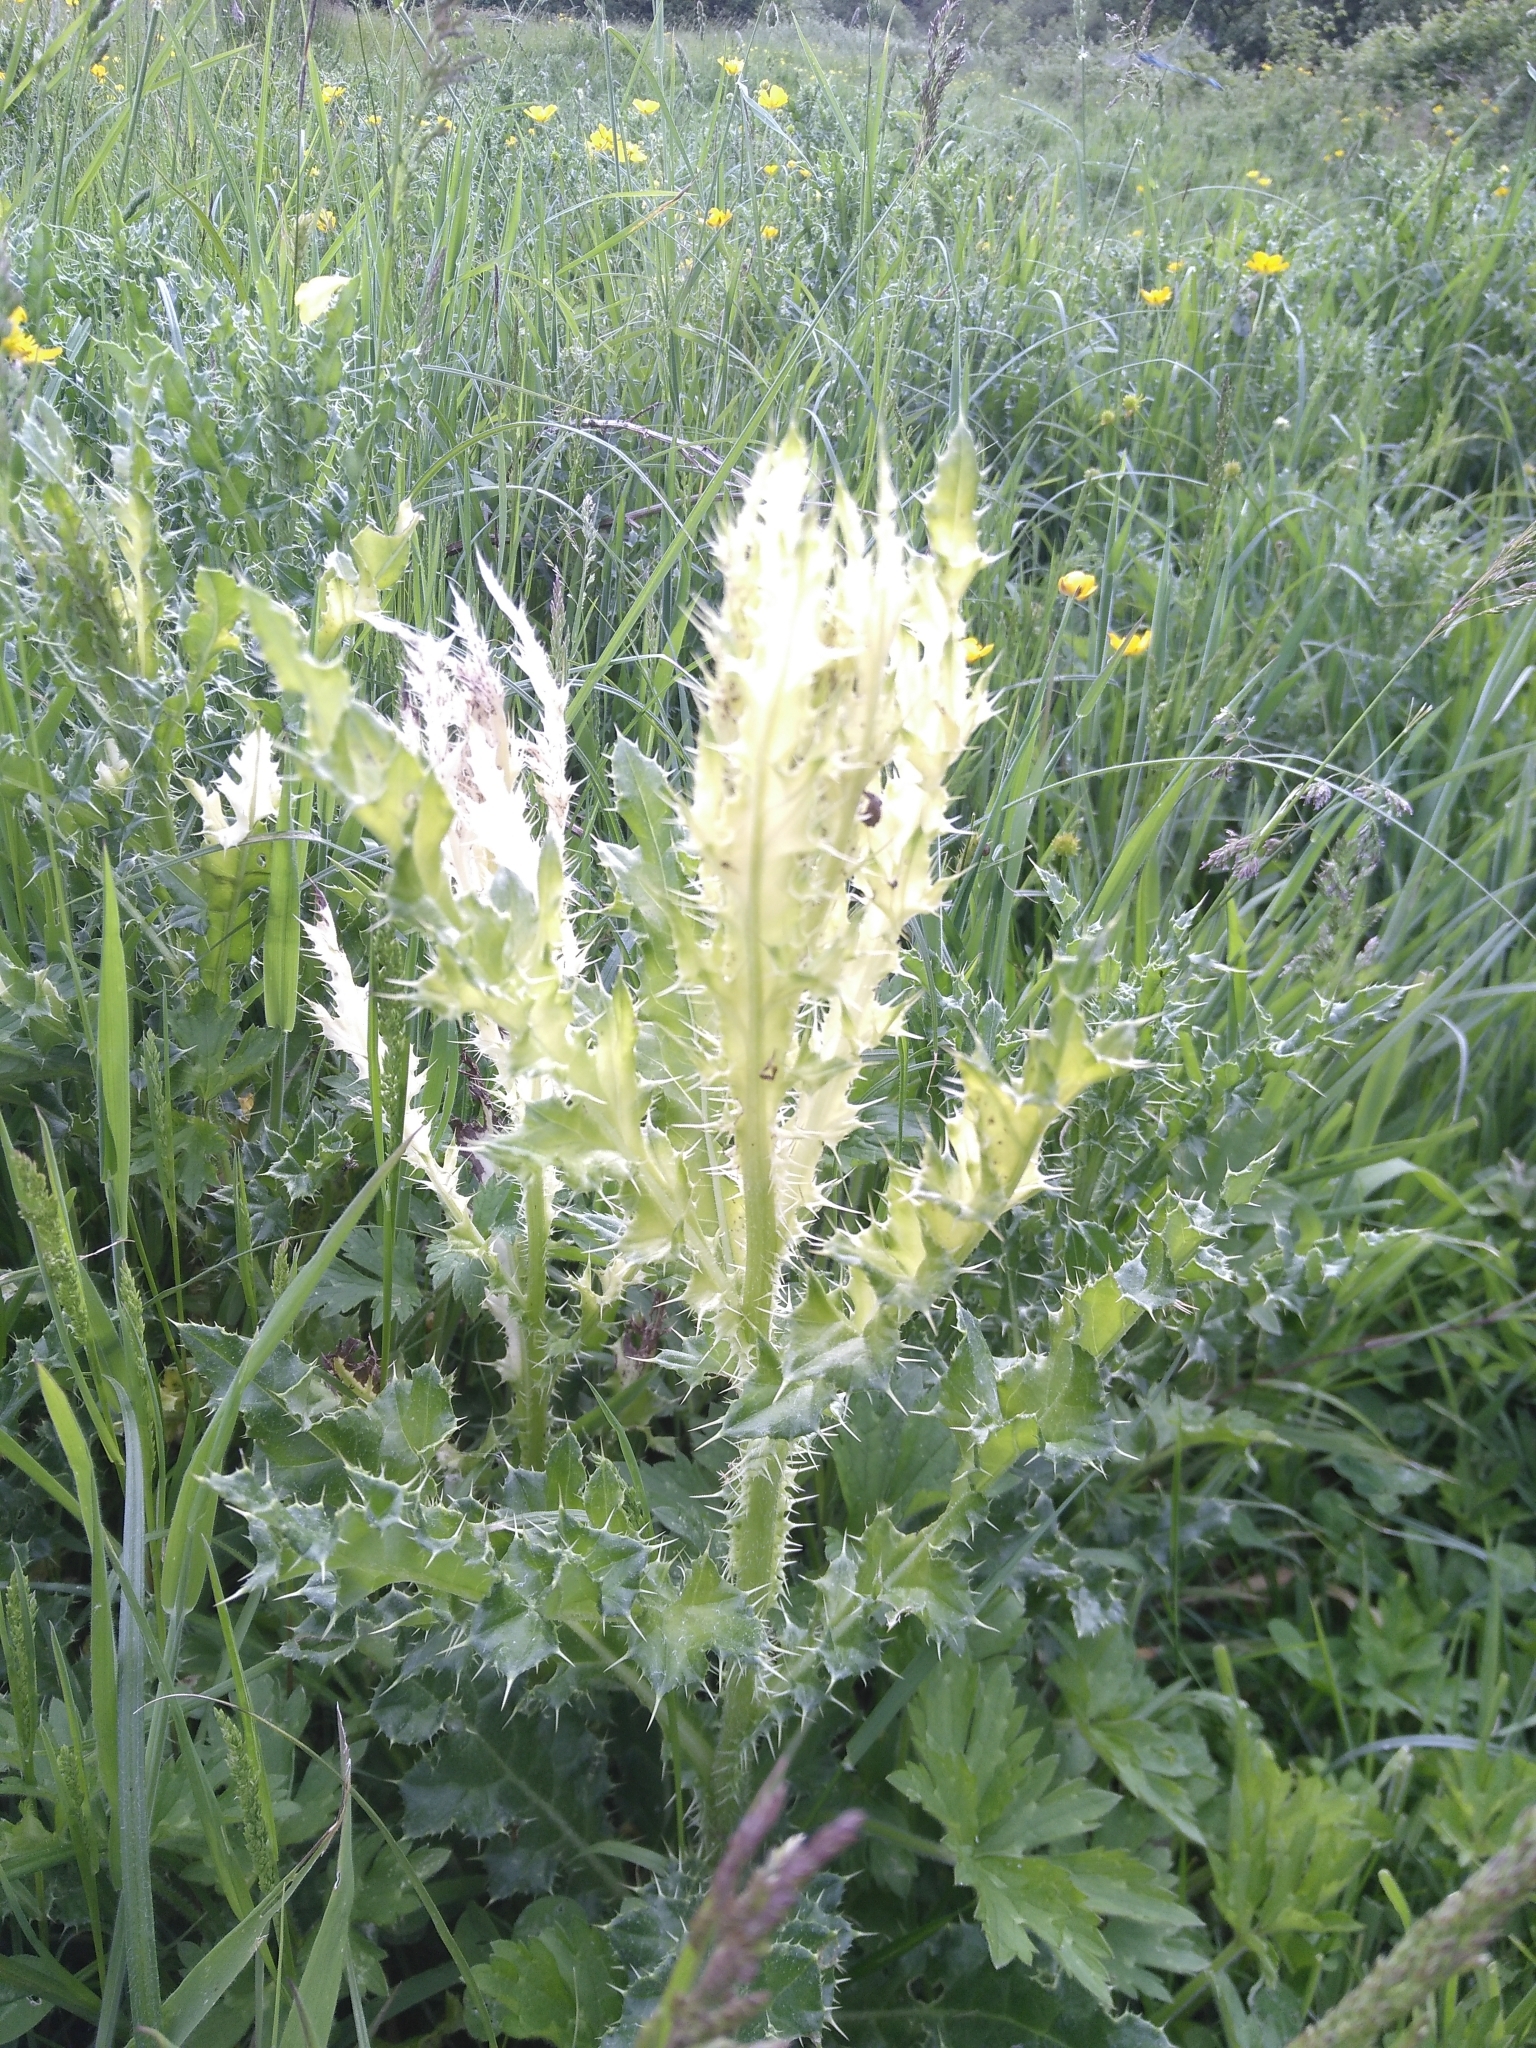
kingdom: Bacteria
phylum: Proteobacteria
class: Gammaproteobacteria
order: Pseudomonadales
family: Pseudomonadaceae
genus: Pseudomonas
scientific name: Pseudomonas syringae
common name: Bacterial speck
